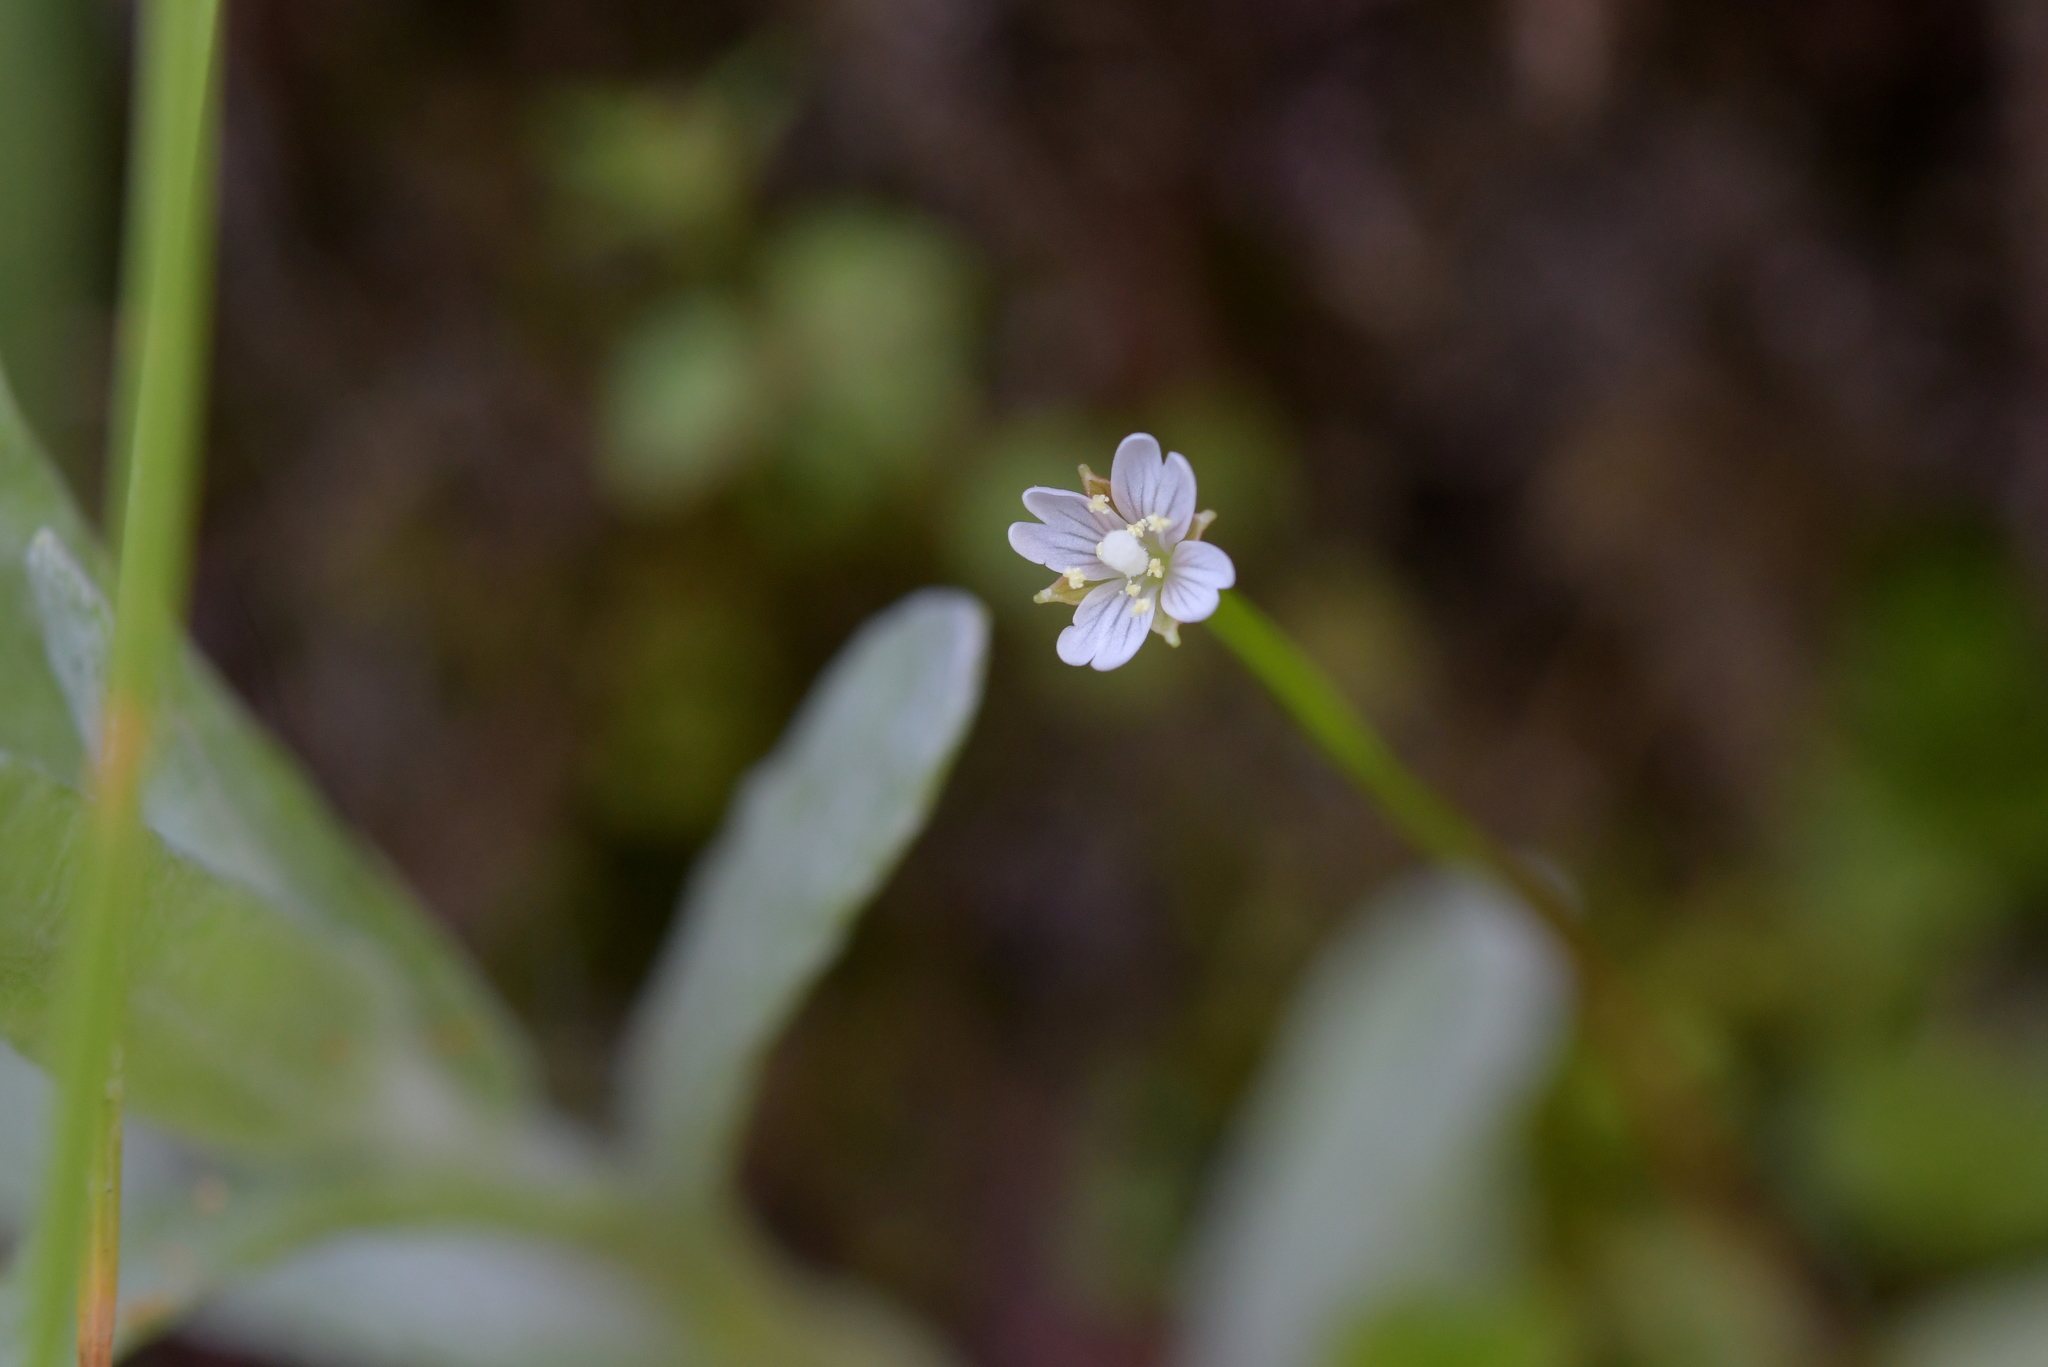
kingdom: Plantae
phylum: Tracheophyta
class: Magnoliopsida
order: Myrtales
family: Onagraceae
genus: Epilobium
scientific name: Epilobium pedunculare
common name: Rockery willowherb
